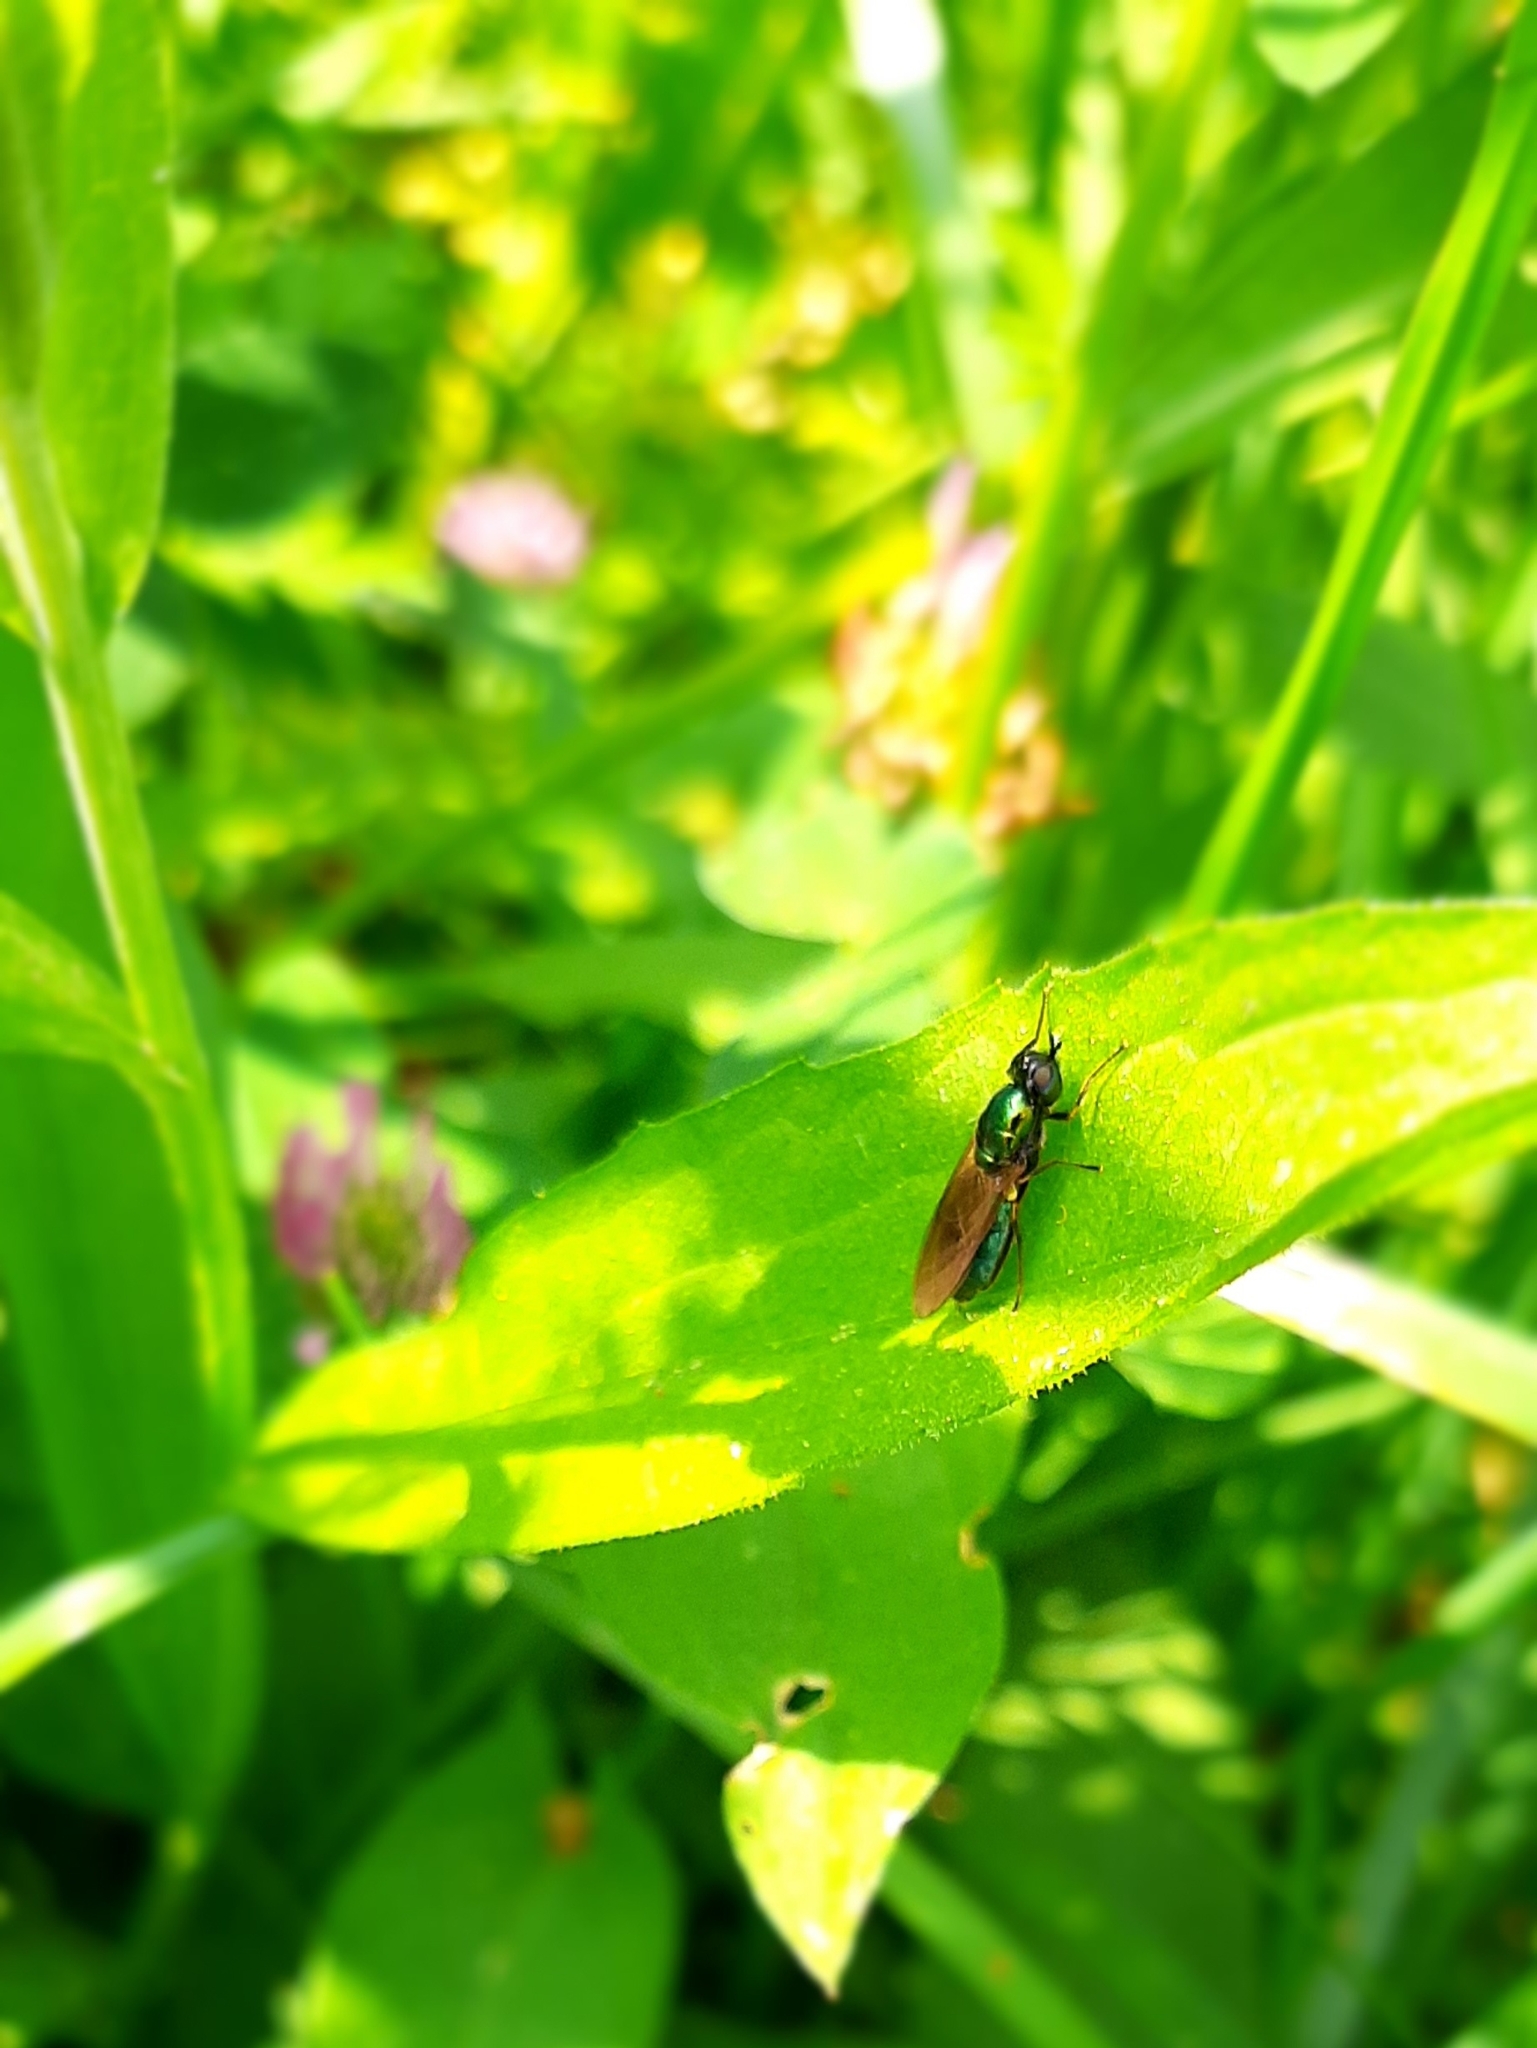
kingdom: Animalia
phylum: Arthropoda
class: Insecta
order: Diptera
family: Stratiomyidae
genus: Chloromyia
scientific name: Chloromyia formosa
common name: Soldier fly
